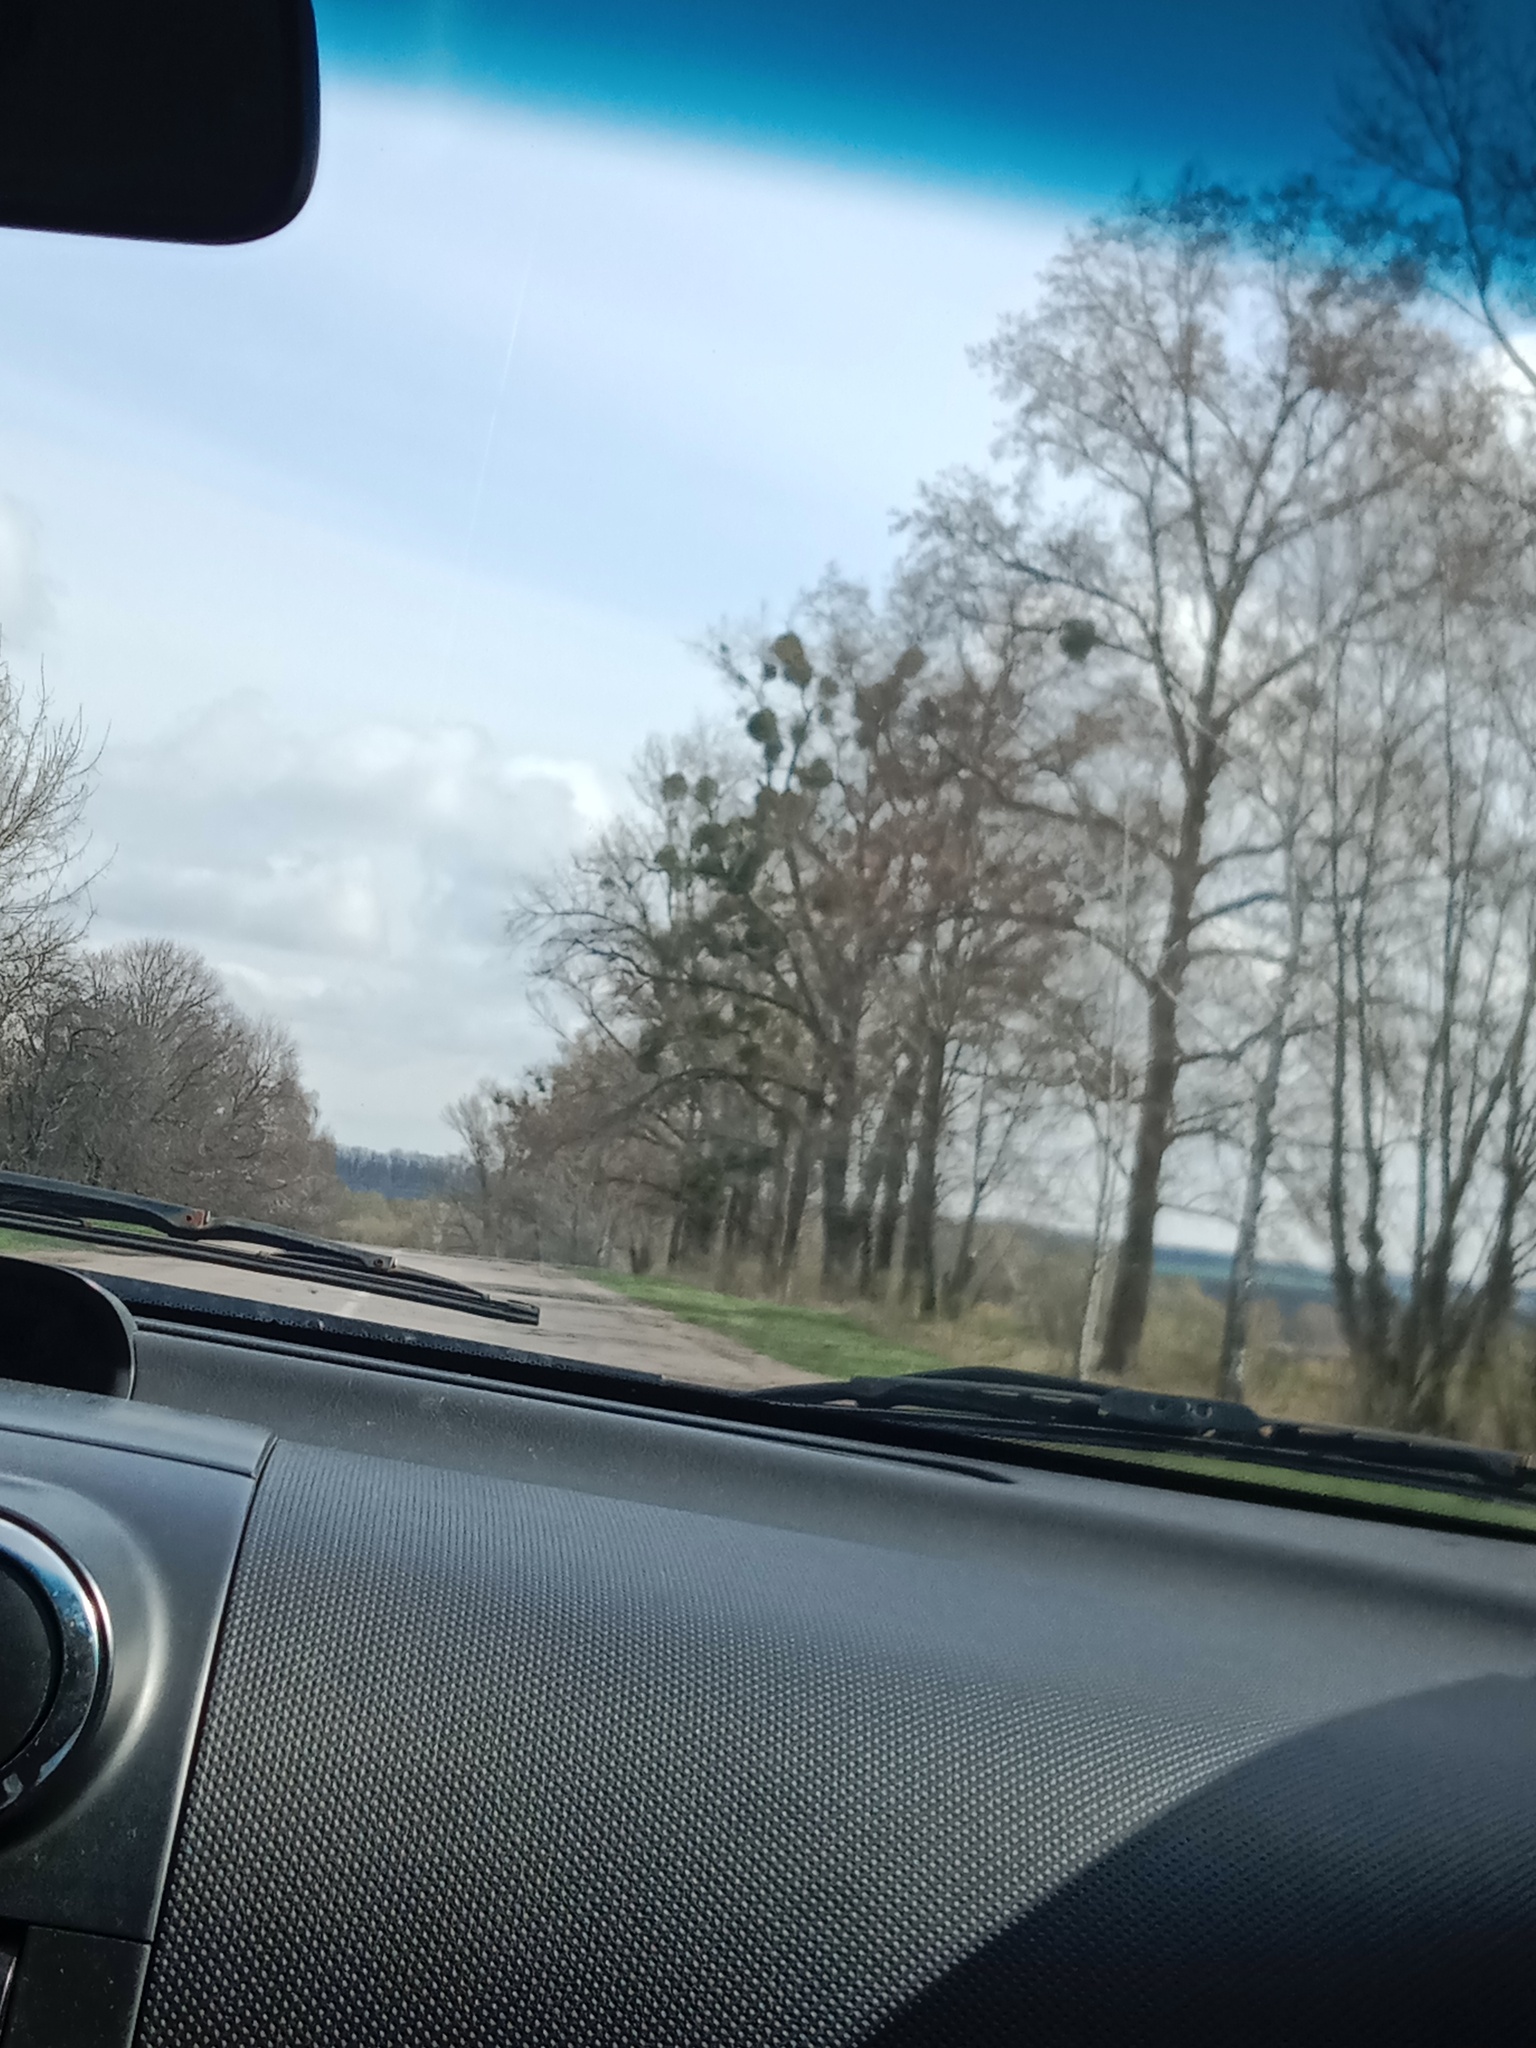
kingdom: Plantae
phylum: Tracheophyta
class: Magnoliopsida
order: Santalales
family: Viscaceae
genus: Viscum
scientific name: Viscum album
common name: Mistletoe
